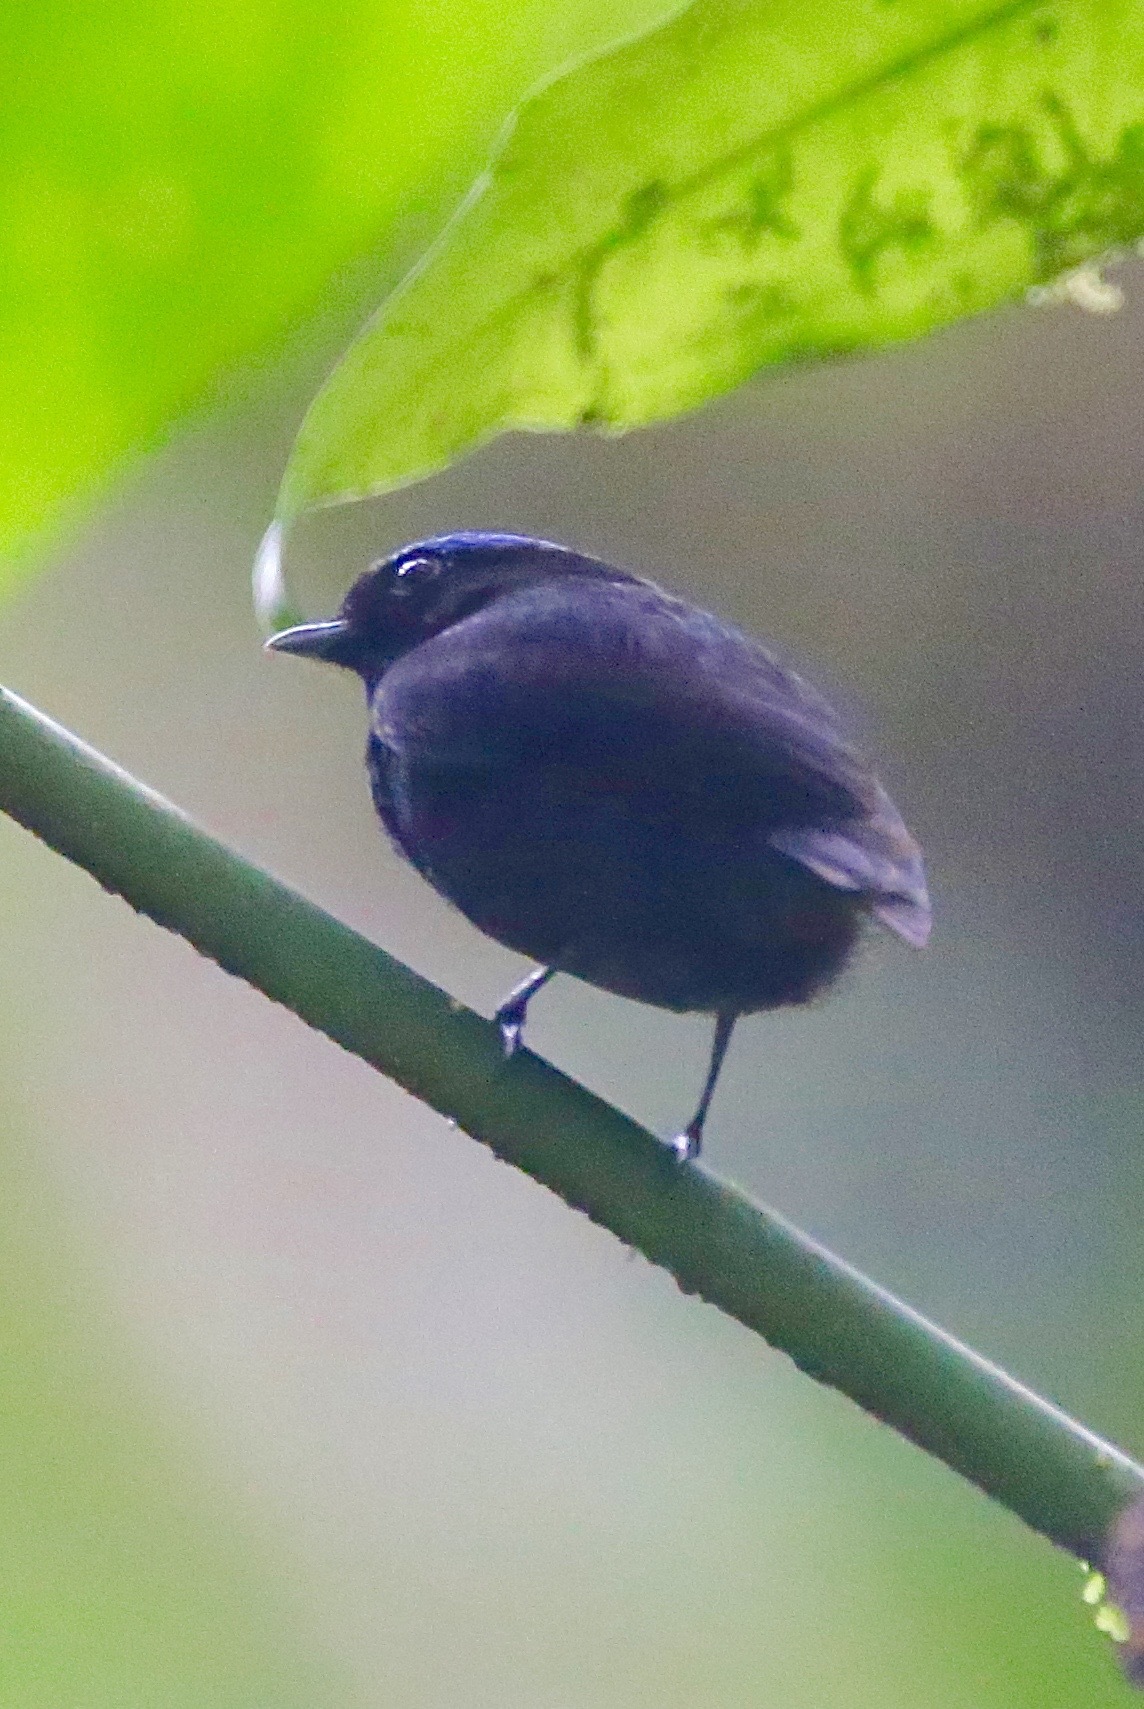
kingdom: Animalia
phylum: Chordata
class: Aves
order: Passeriformes
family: Pipridae
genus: Lepidothrix
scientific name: Lepidothrix coronata
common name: Blue-crowned manakin
